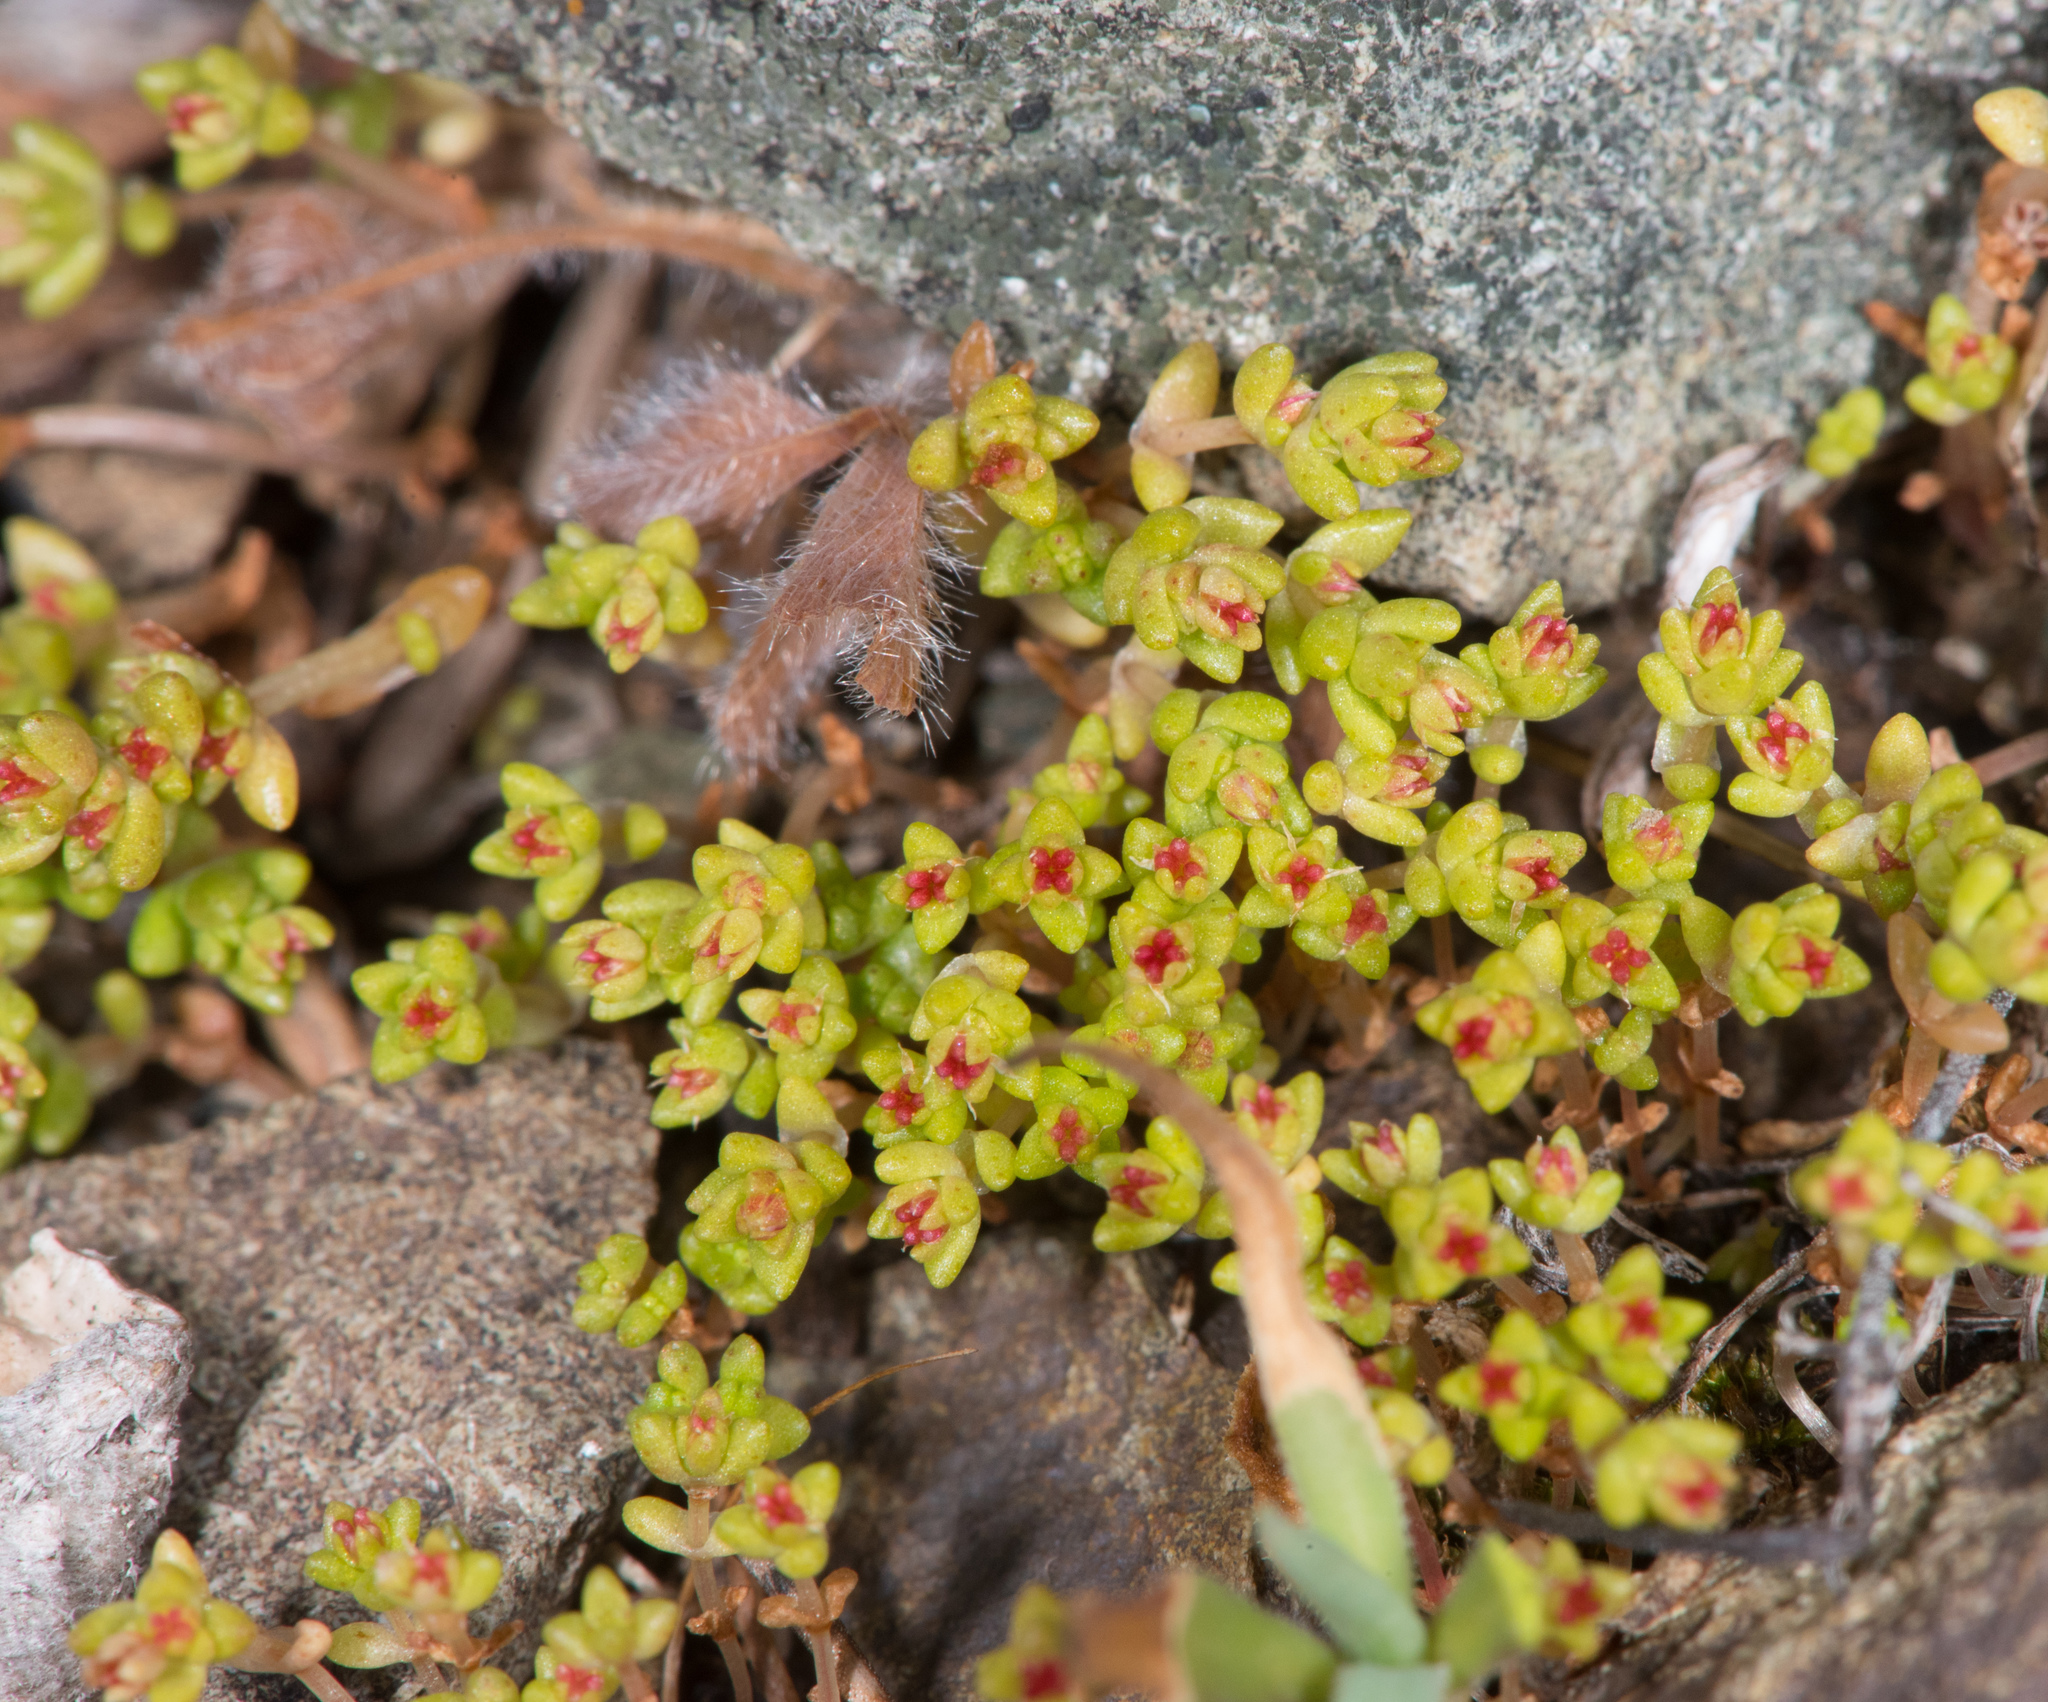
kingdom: Plantae
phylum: Tracheophyta
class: Magnoliopsida
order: Saxifragales
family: Crassulaceae
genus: Crassula
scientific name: Crassula connata
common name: Erect pygmyweed
